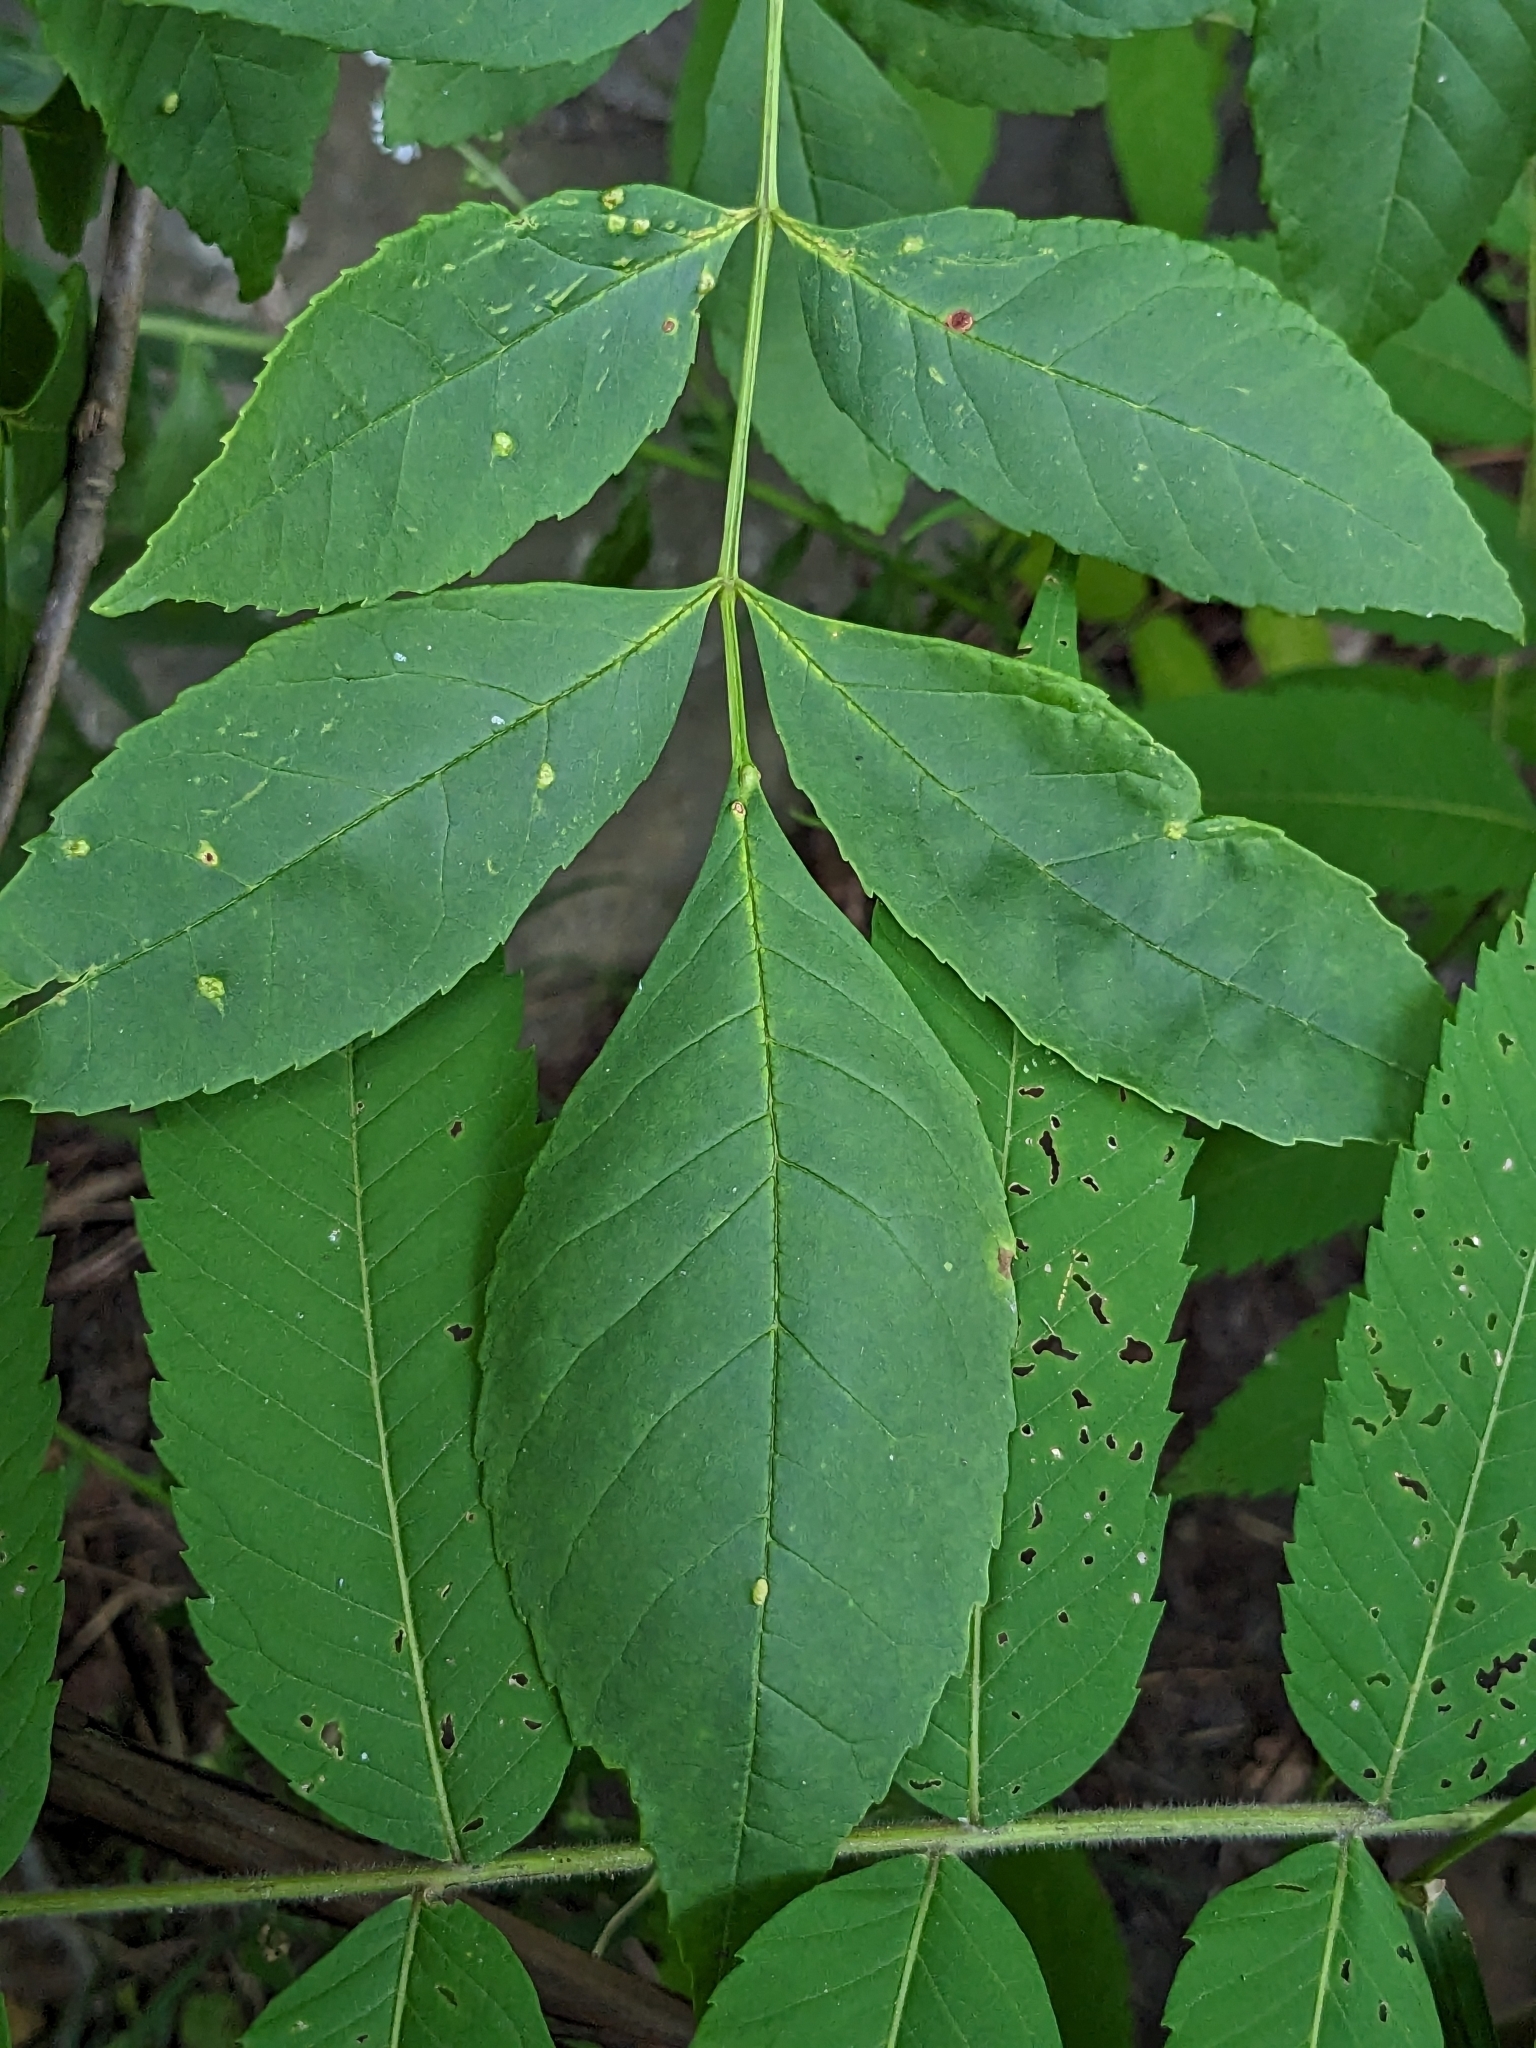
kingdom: Animalia
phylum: Arthropoda
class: Arachnida
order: Trombidiformes
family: Eriophyidae
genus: Aceria
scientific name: Aceria fraxinicola
